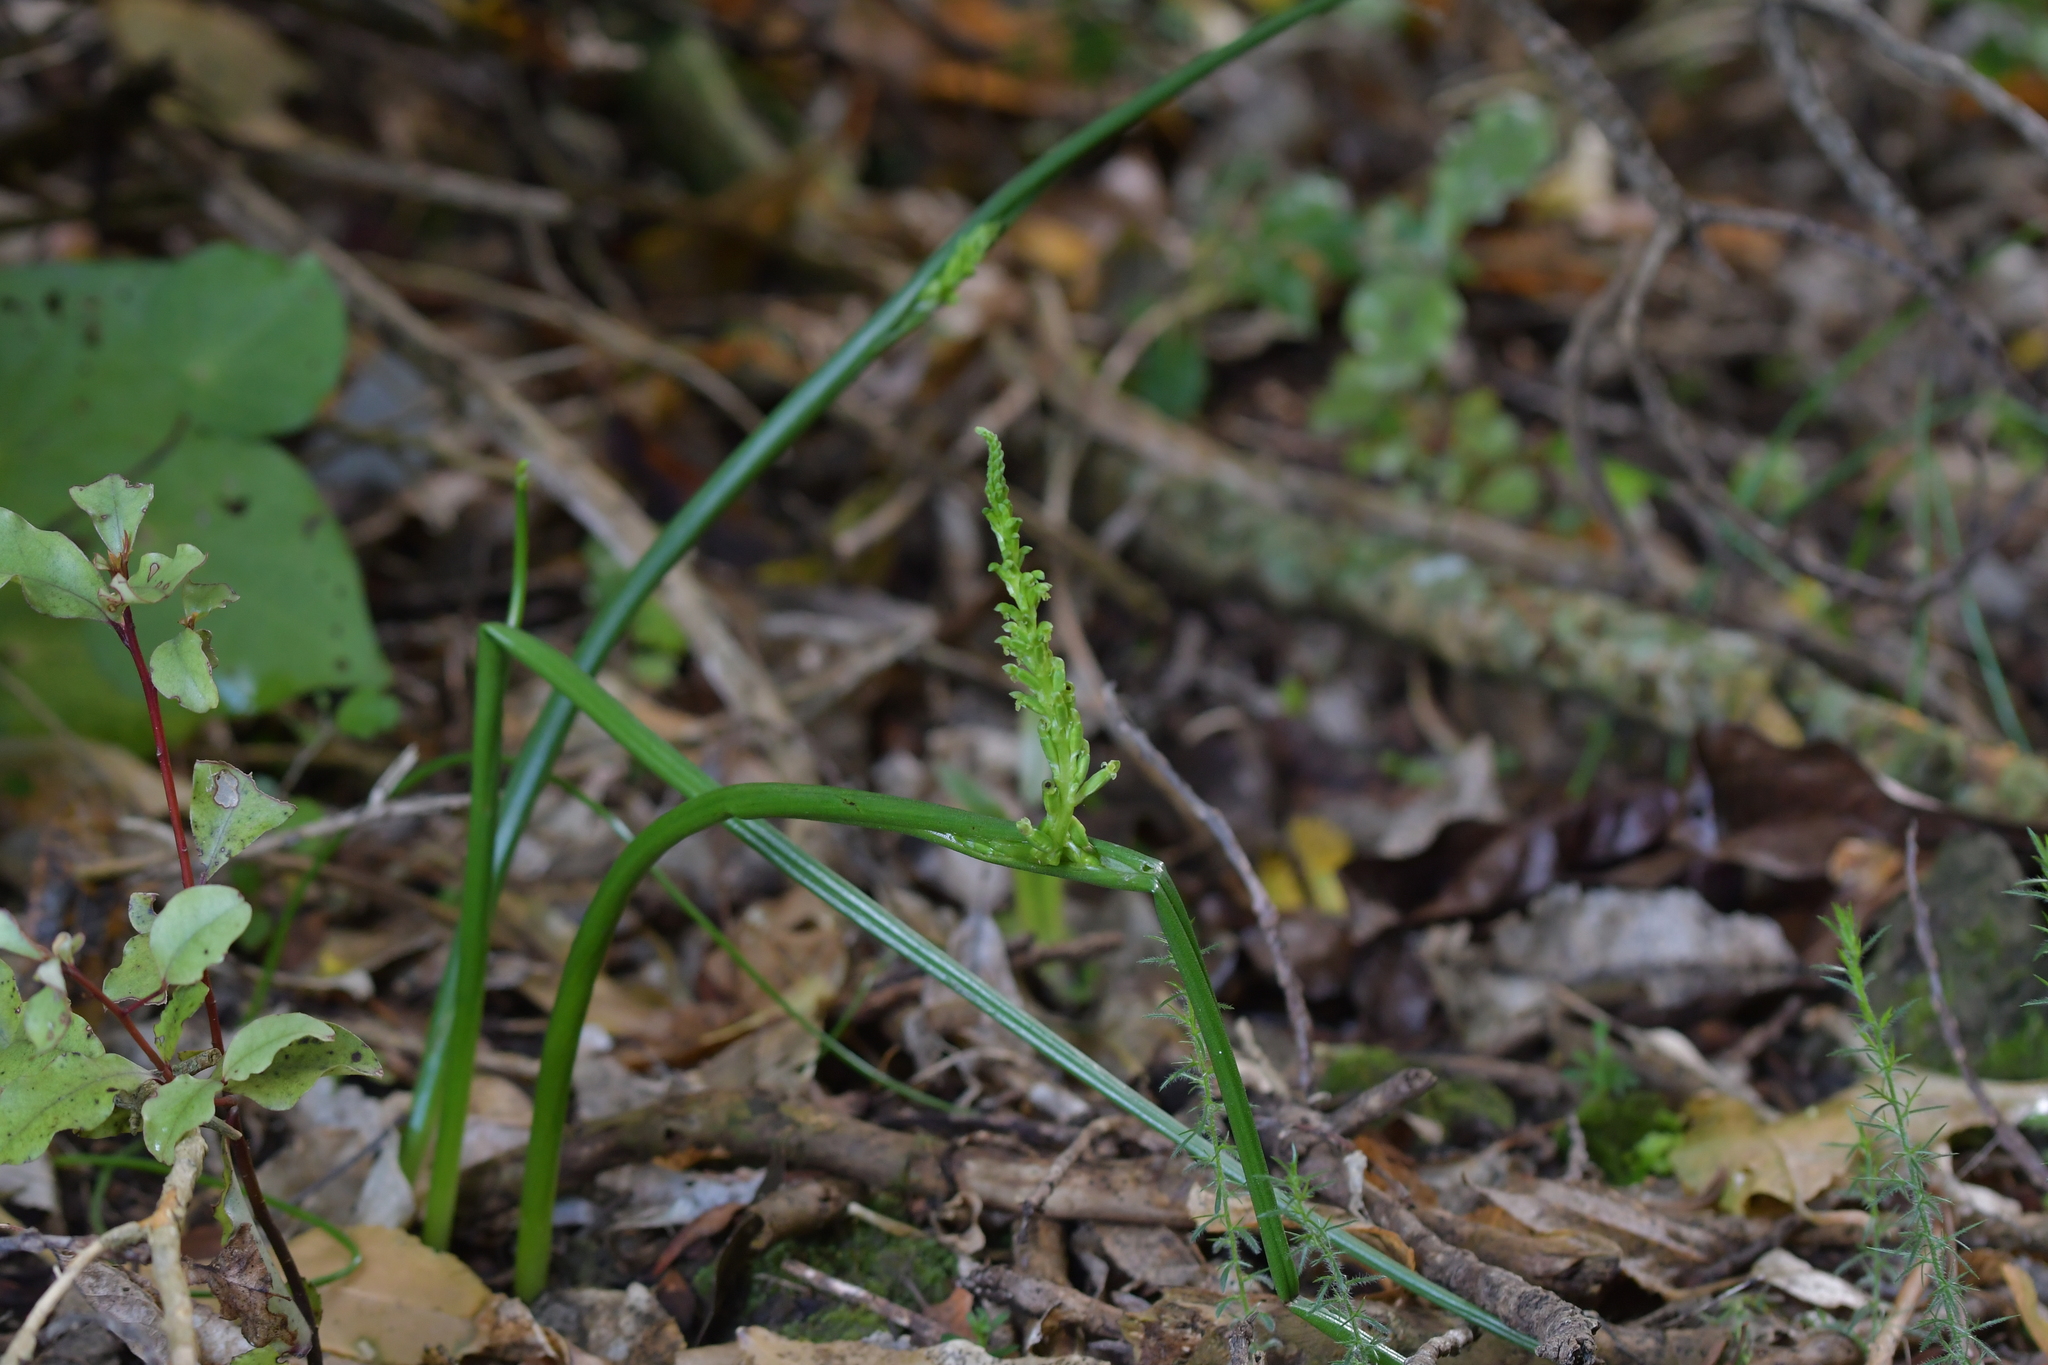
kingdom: Plantae
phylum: Tracheophyta
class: Liliopsida
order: Asparagales
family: Orchidaceae
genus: Microtis
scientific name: Microtis unifolia
